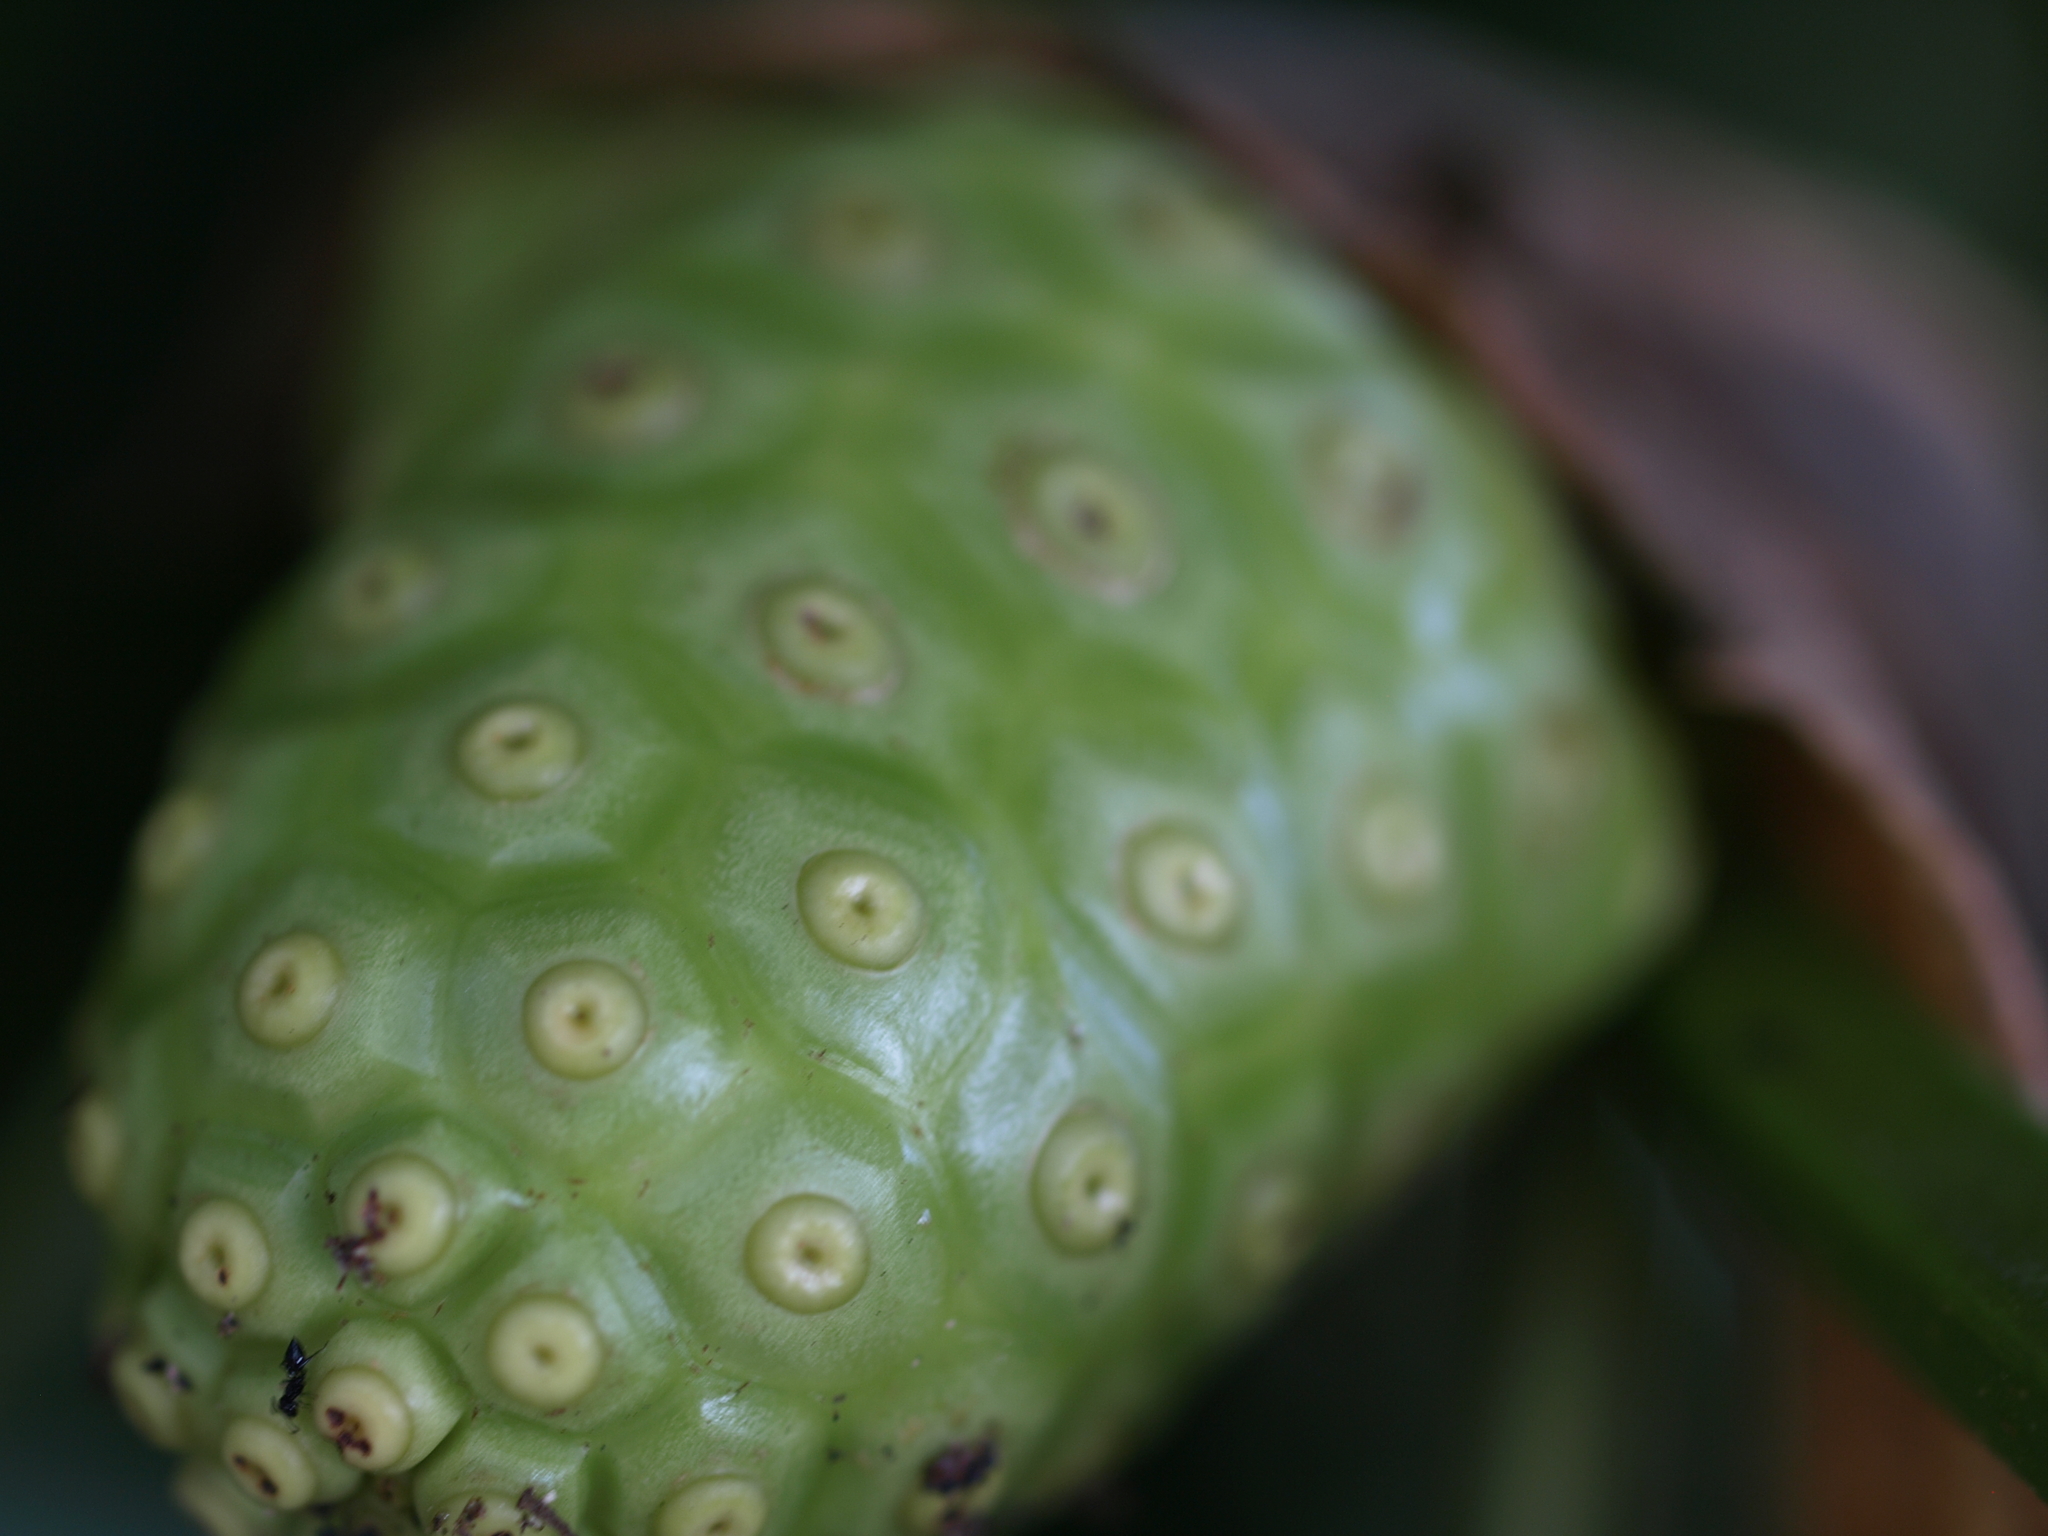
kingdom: Plantae
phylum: Tracheophyta
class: Magnoliopsida
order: Gentianales
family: Rubiaceae
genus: Morinda
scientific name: Morinda citrifolia
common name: Indian-mulberry
